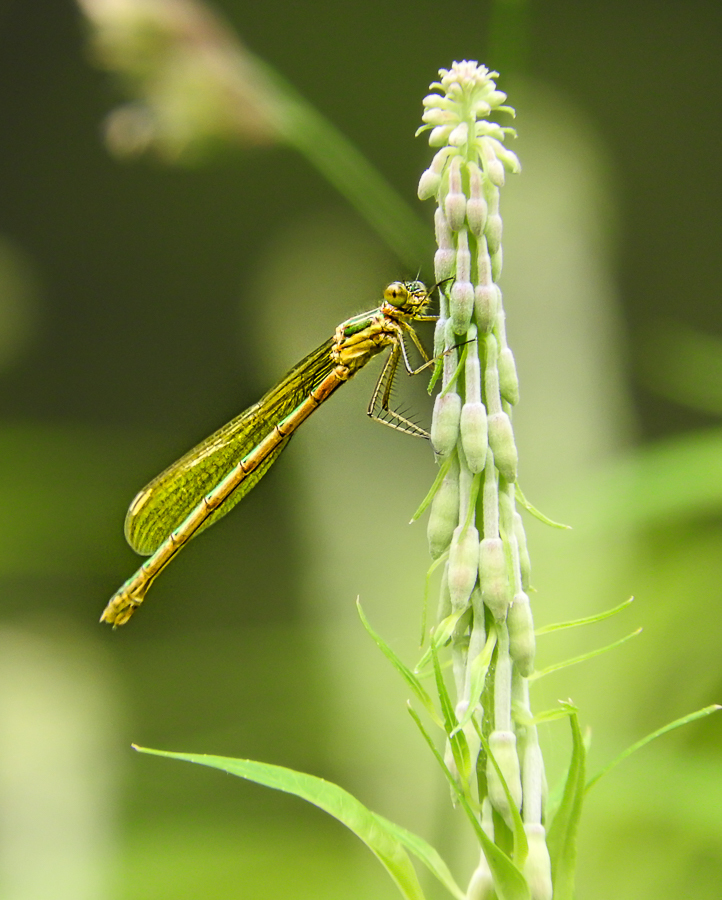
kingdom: Animalia
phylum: Arthropoda
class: Insecta
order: Odonata
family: Lestidae
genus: Lestes
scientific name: Lestes sponsa
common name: Common spreadwing
